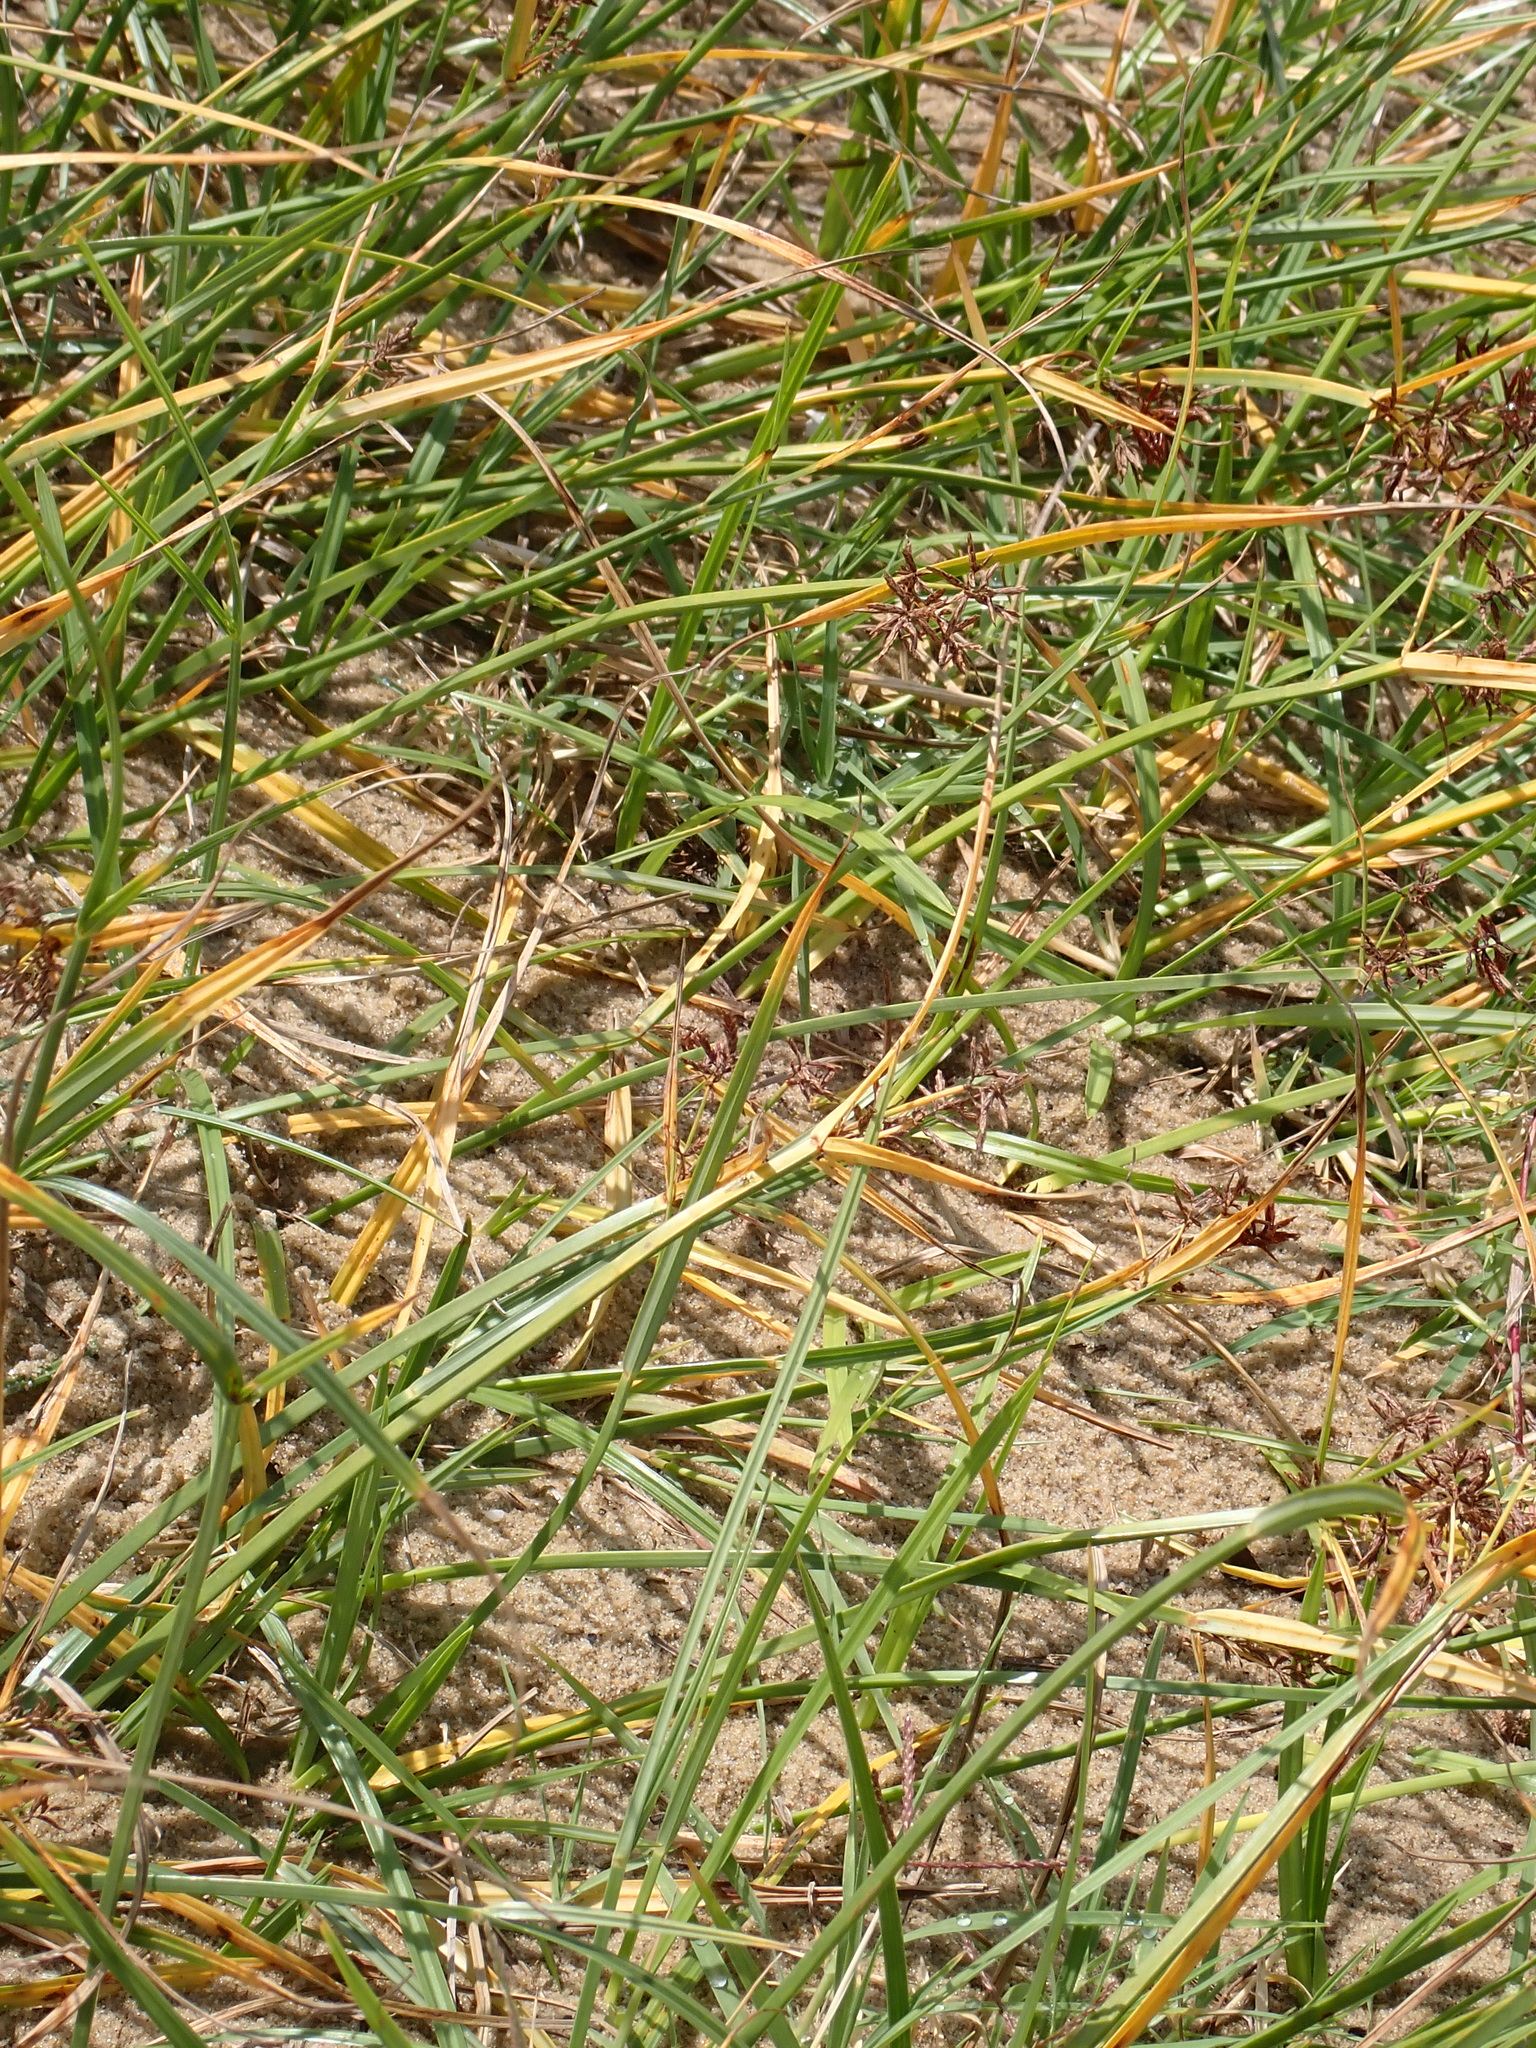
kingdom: Plantae
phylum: Tracheophyta
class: Liliopsida
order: Poales
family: Cyperaceae
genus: Cyperus
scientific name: Cyperus longus
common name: Galingale
